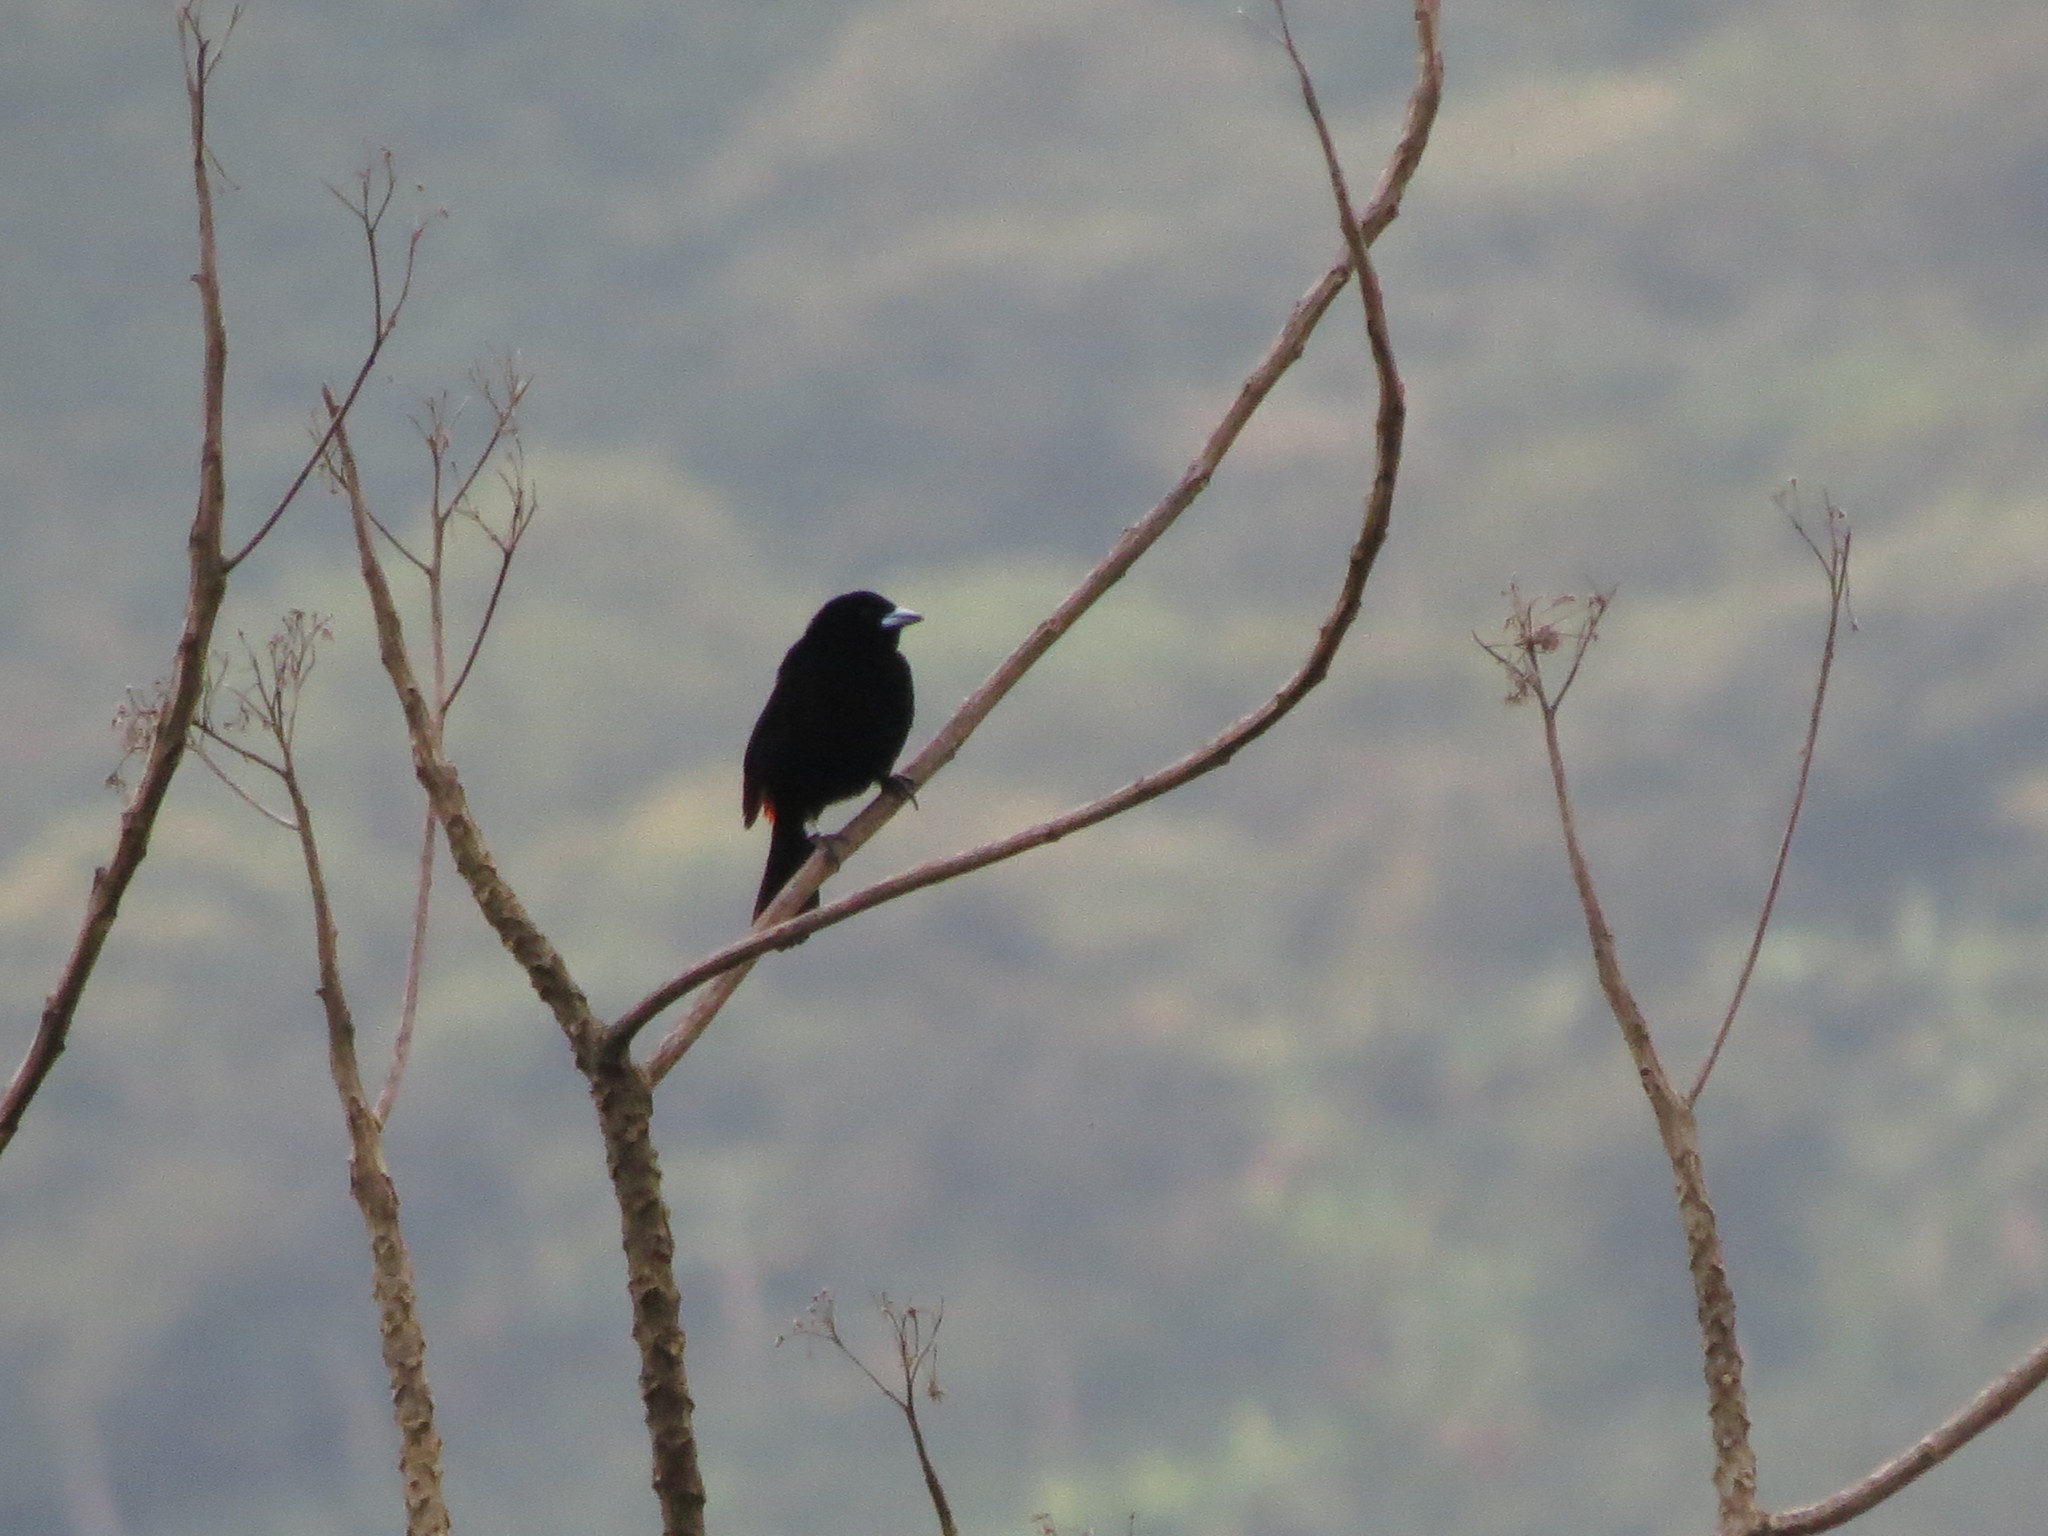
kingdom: Animalia
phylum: Chordata
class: Aves
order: Passeriformes
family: Thraupidae
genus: Ramphocelus
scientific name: Ramphocelus flammigerus
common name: Flame-rumped tanager
